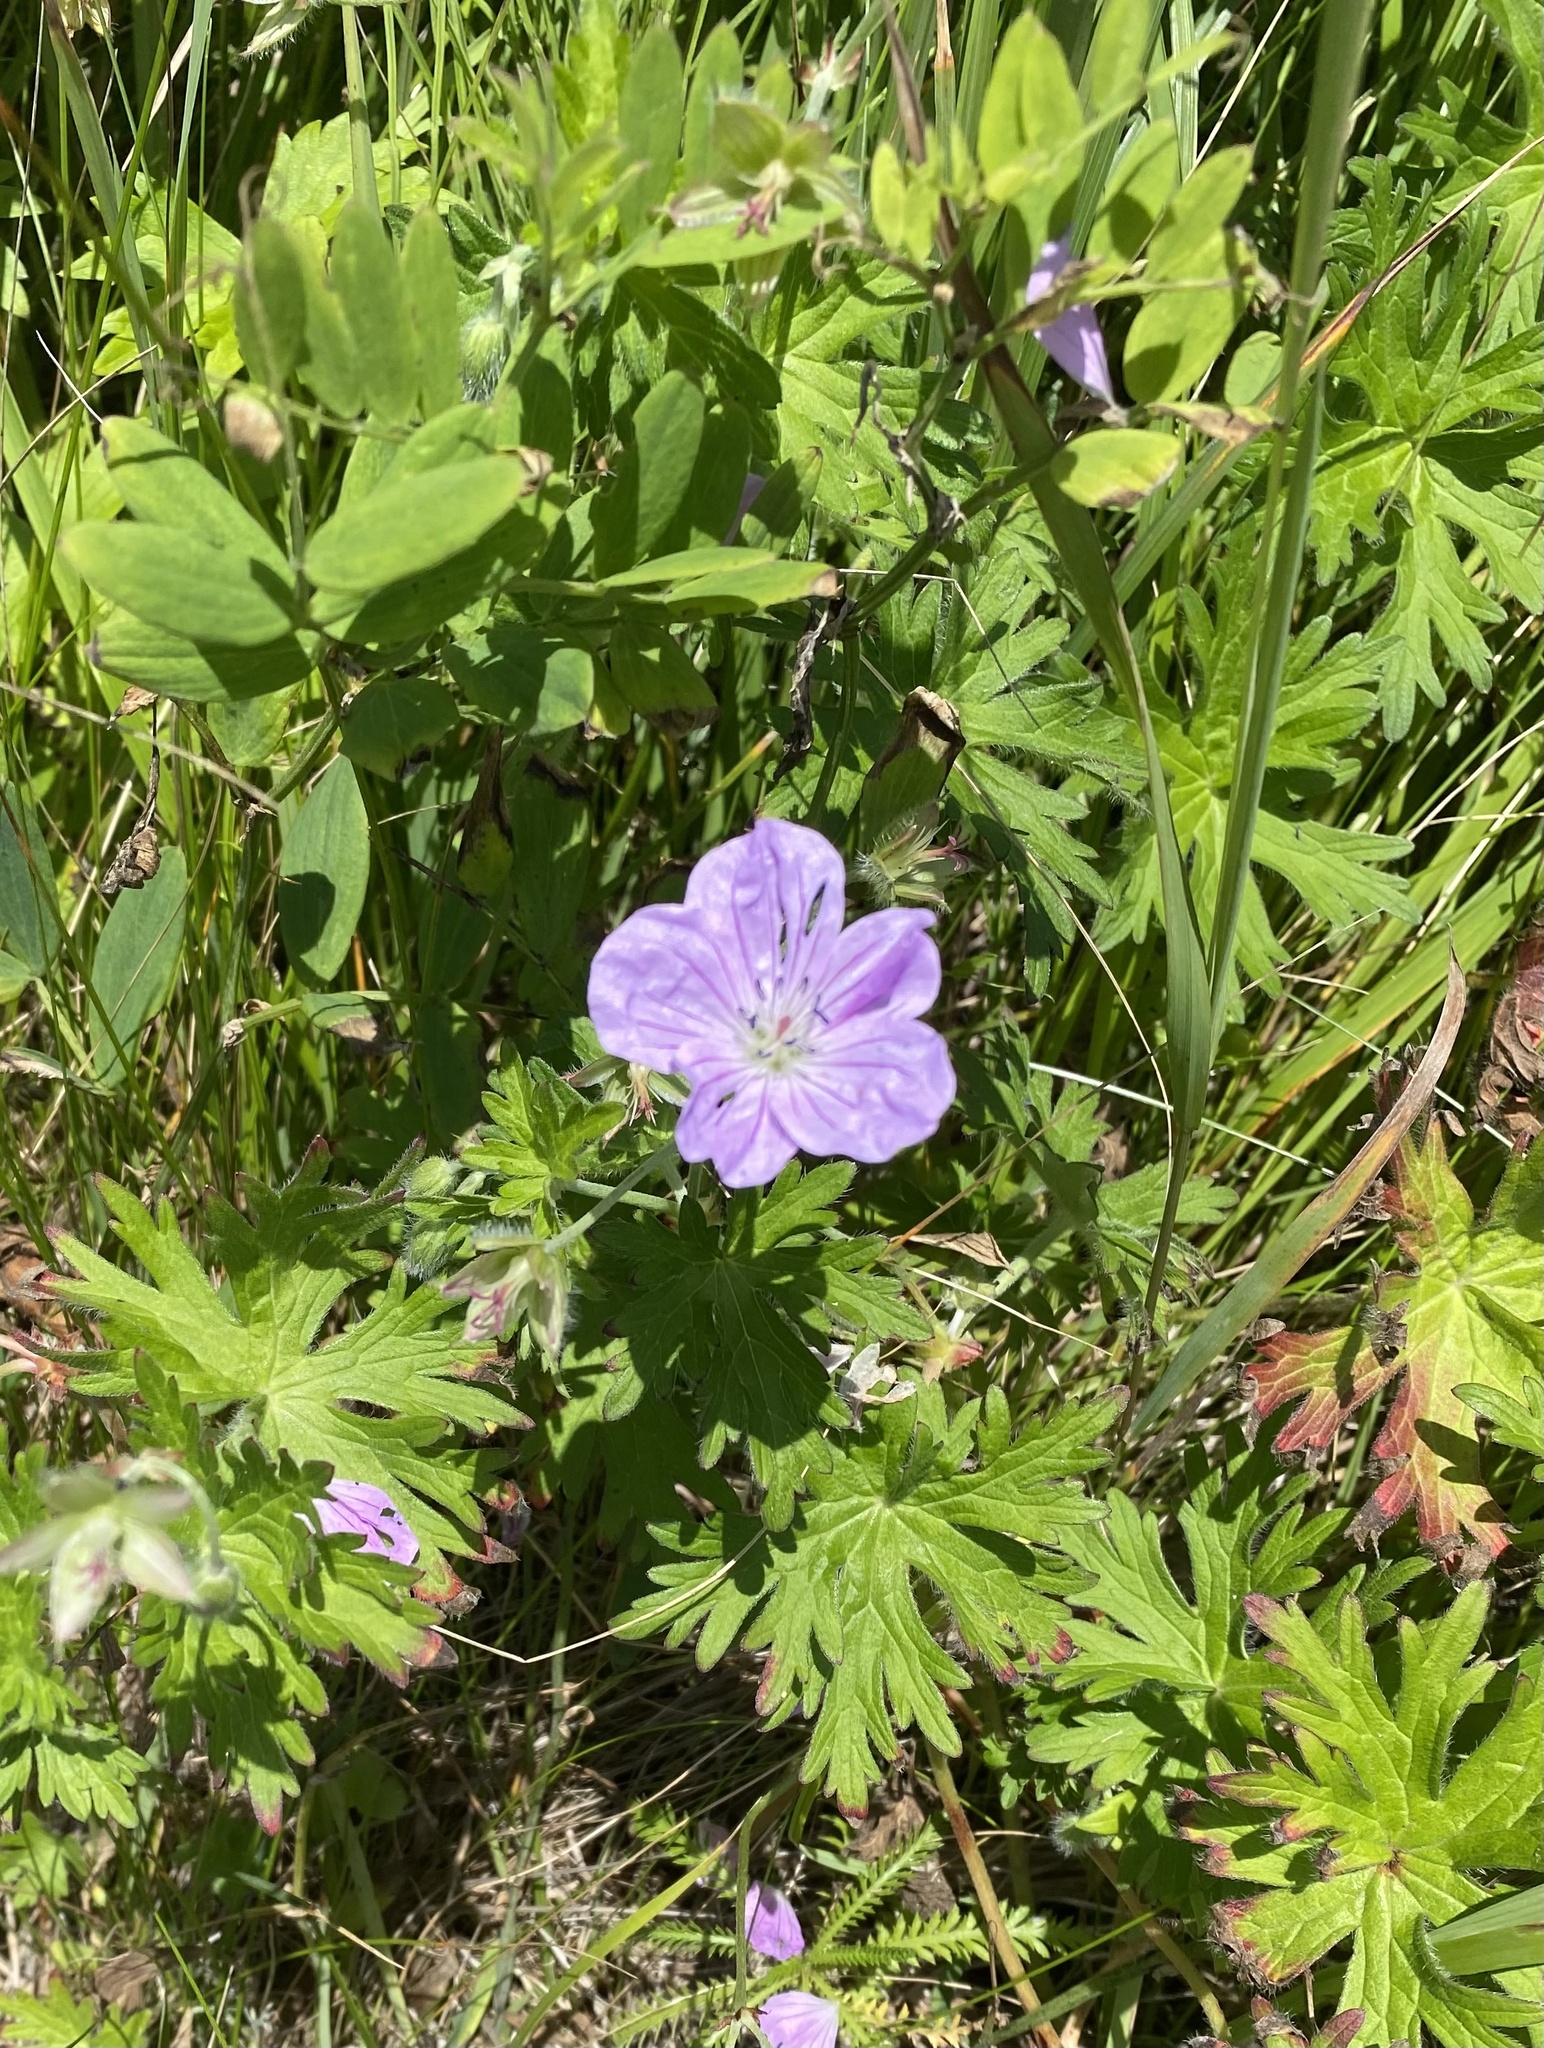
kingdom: Plantae
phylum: Tracheophyta
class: Magnoliopsida
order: Geraniales
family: Geraniaceae
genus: Geranium
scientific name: Geranium yesoense
